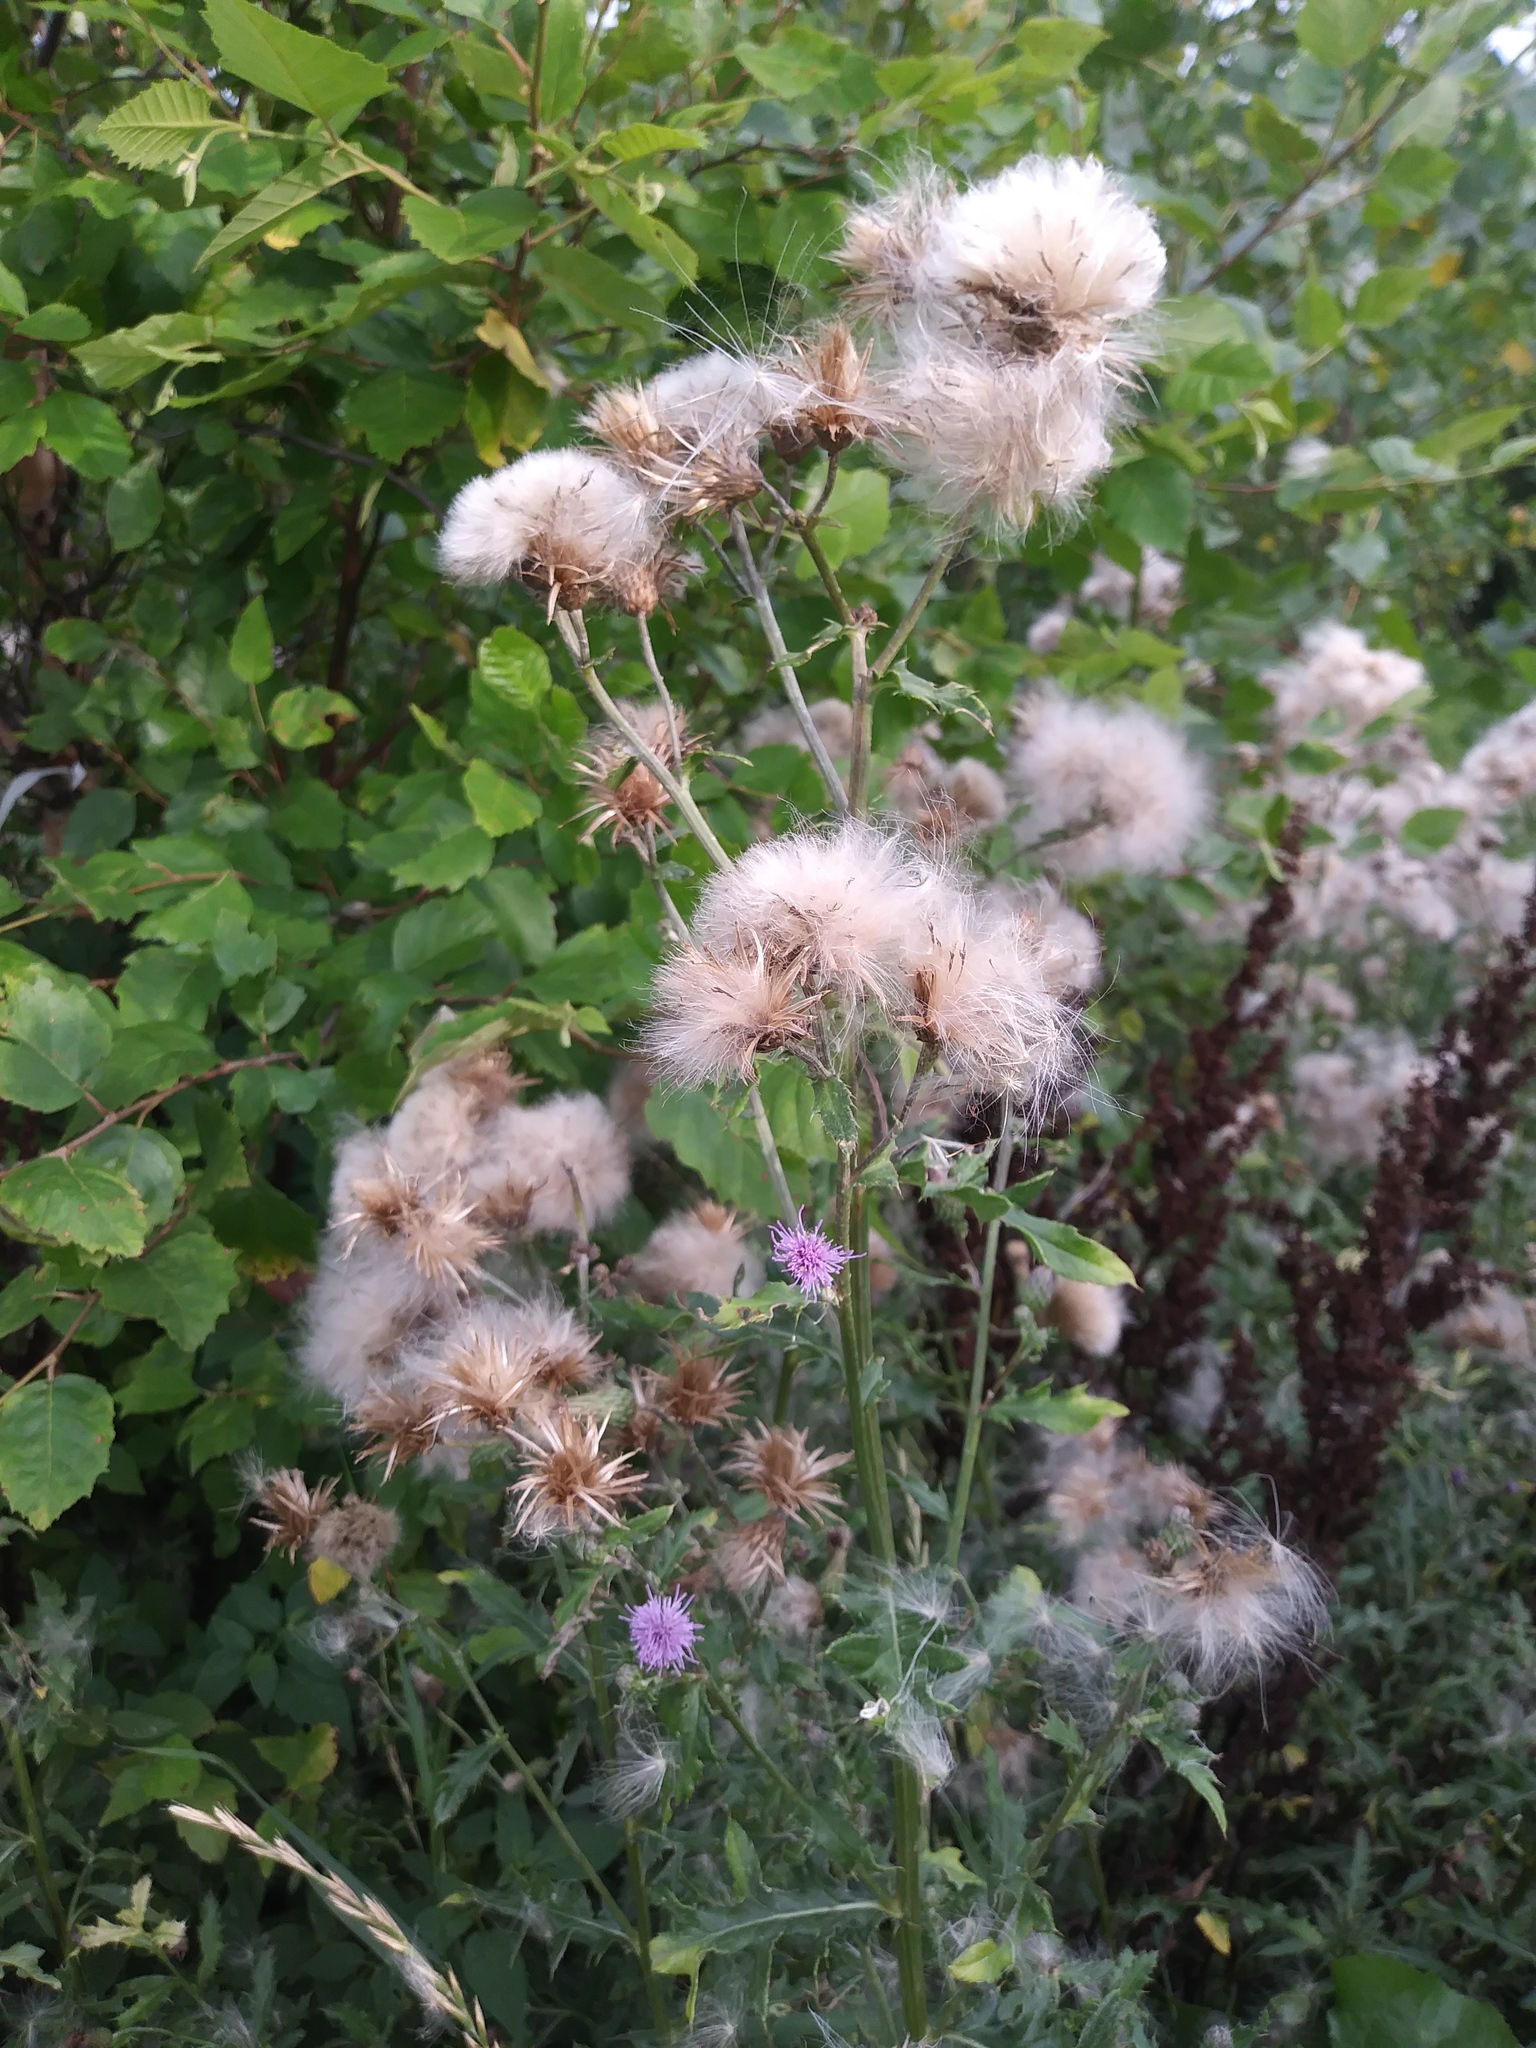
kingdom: Plantae
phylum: Tracheophyta
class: Magnoliopsida
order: Asterales
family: Asteraceae
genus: Cirsium
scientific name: Cirsium arvense
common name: Creeping thistle
